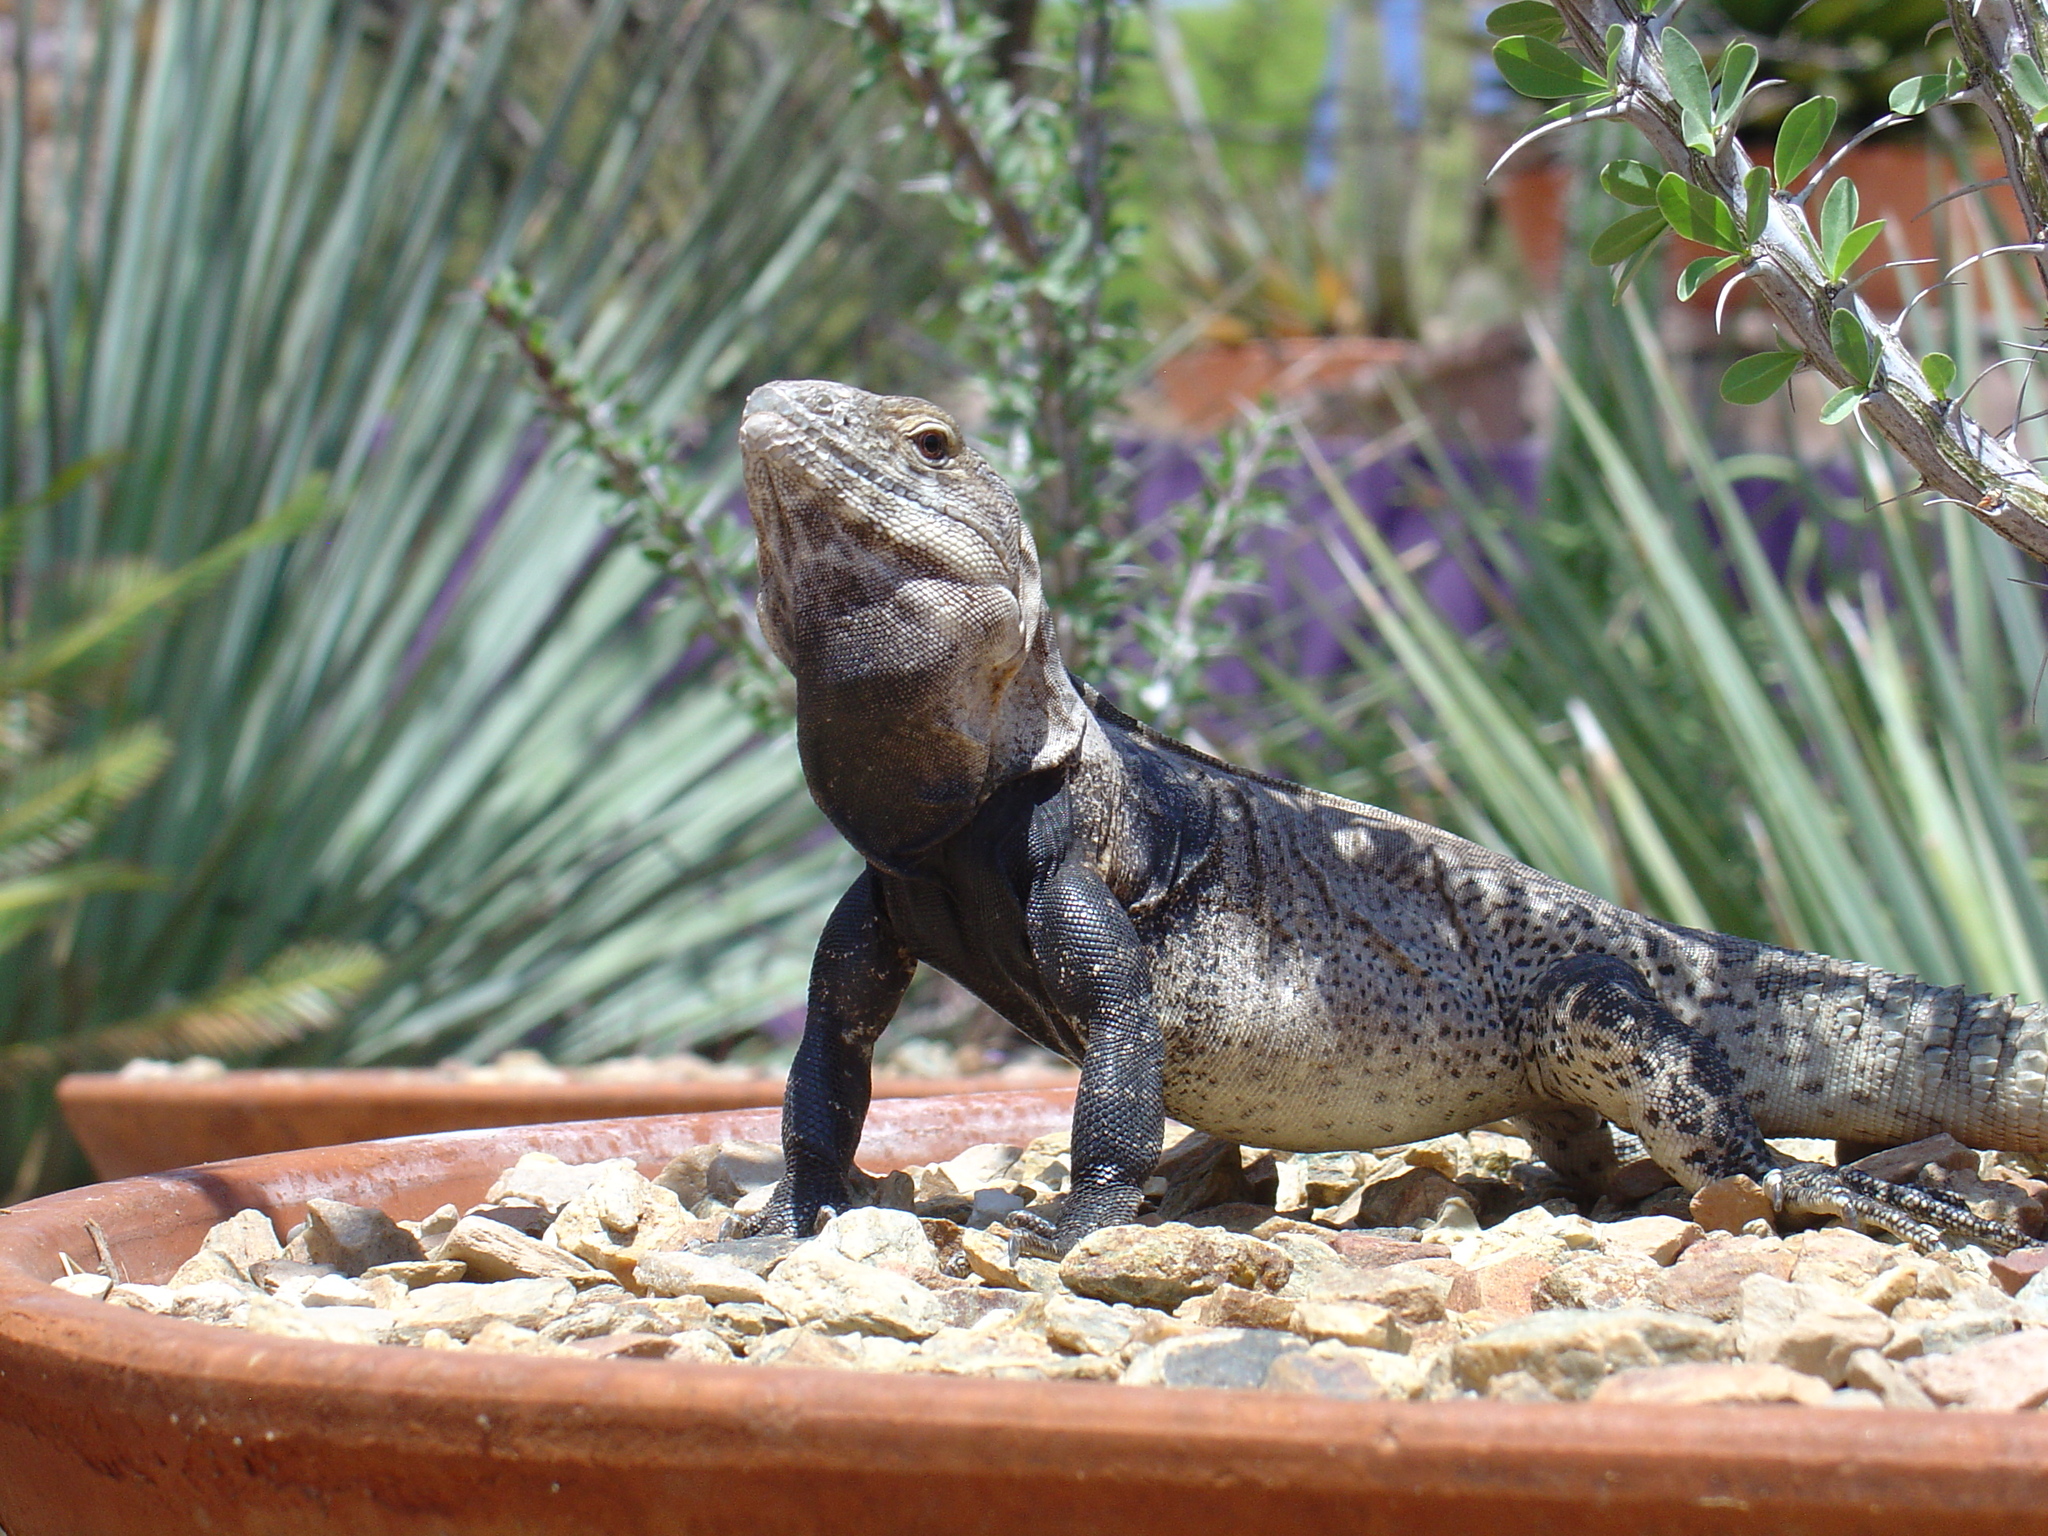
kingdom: Animalia
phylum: Chordata
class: Squamata
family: Iguanidae
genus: Ctenosaura
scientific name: Ctenosaura
